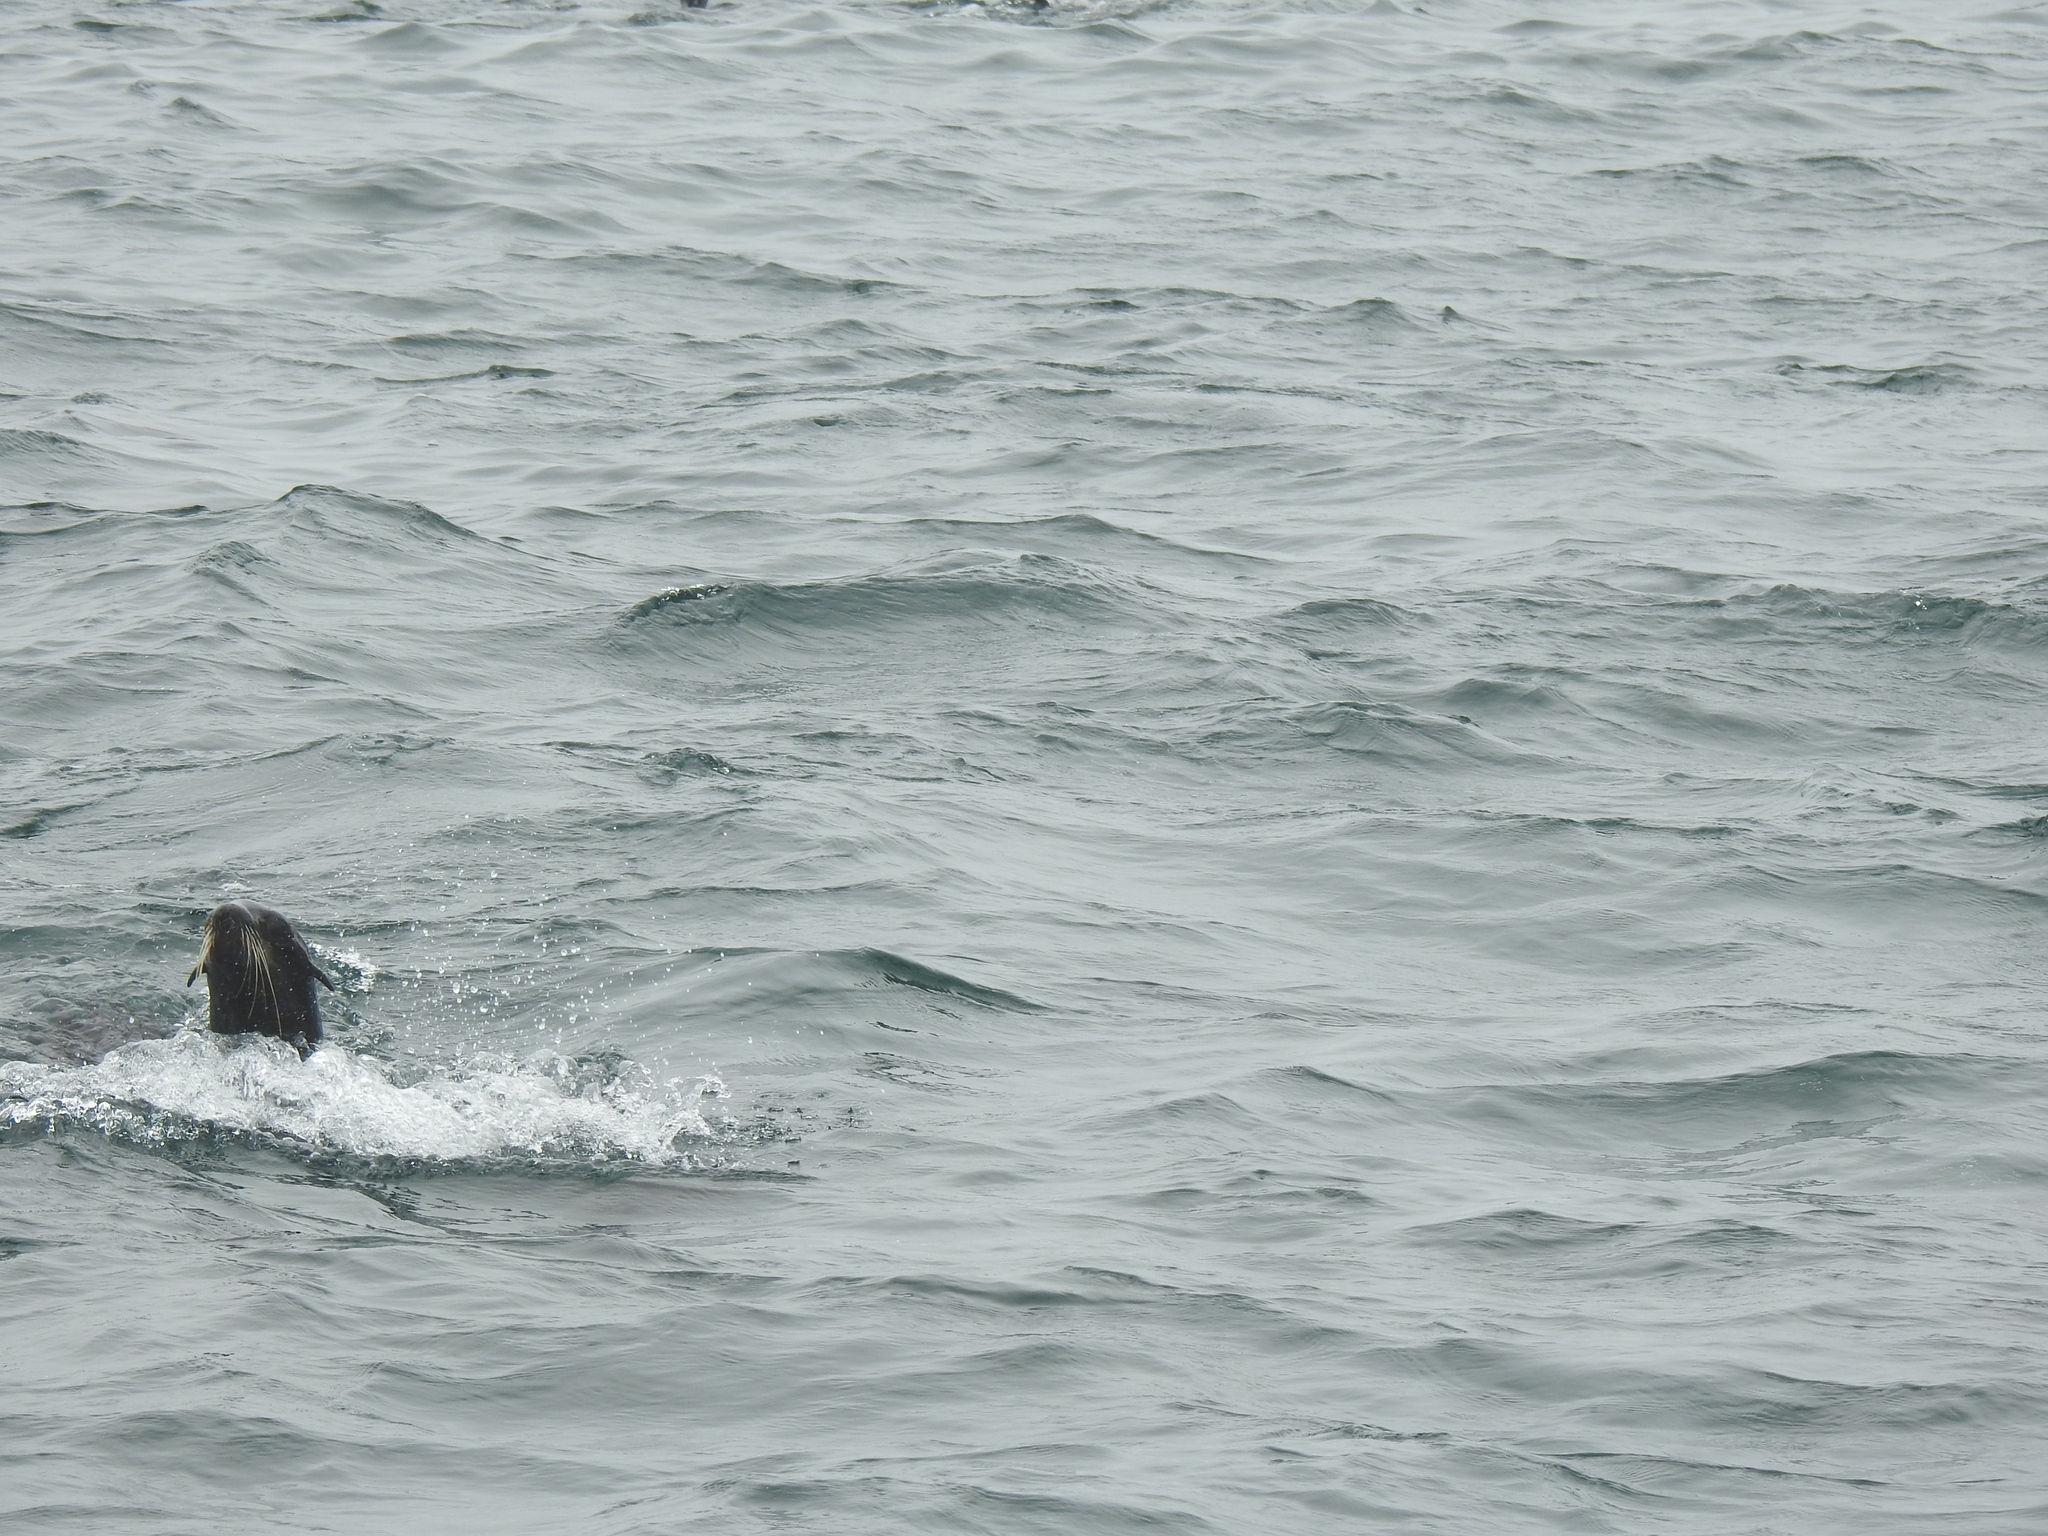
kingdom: Animalia
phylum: Chordata
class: Mammalia
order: Carnivora
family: Otariidae
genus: Callorhinus
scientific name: Callorhinus ursinus
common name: Northern fur seal
